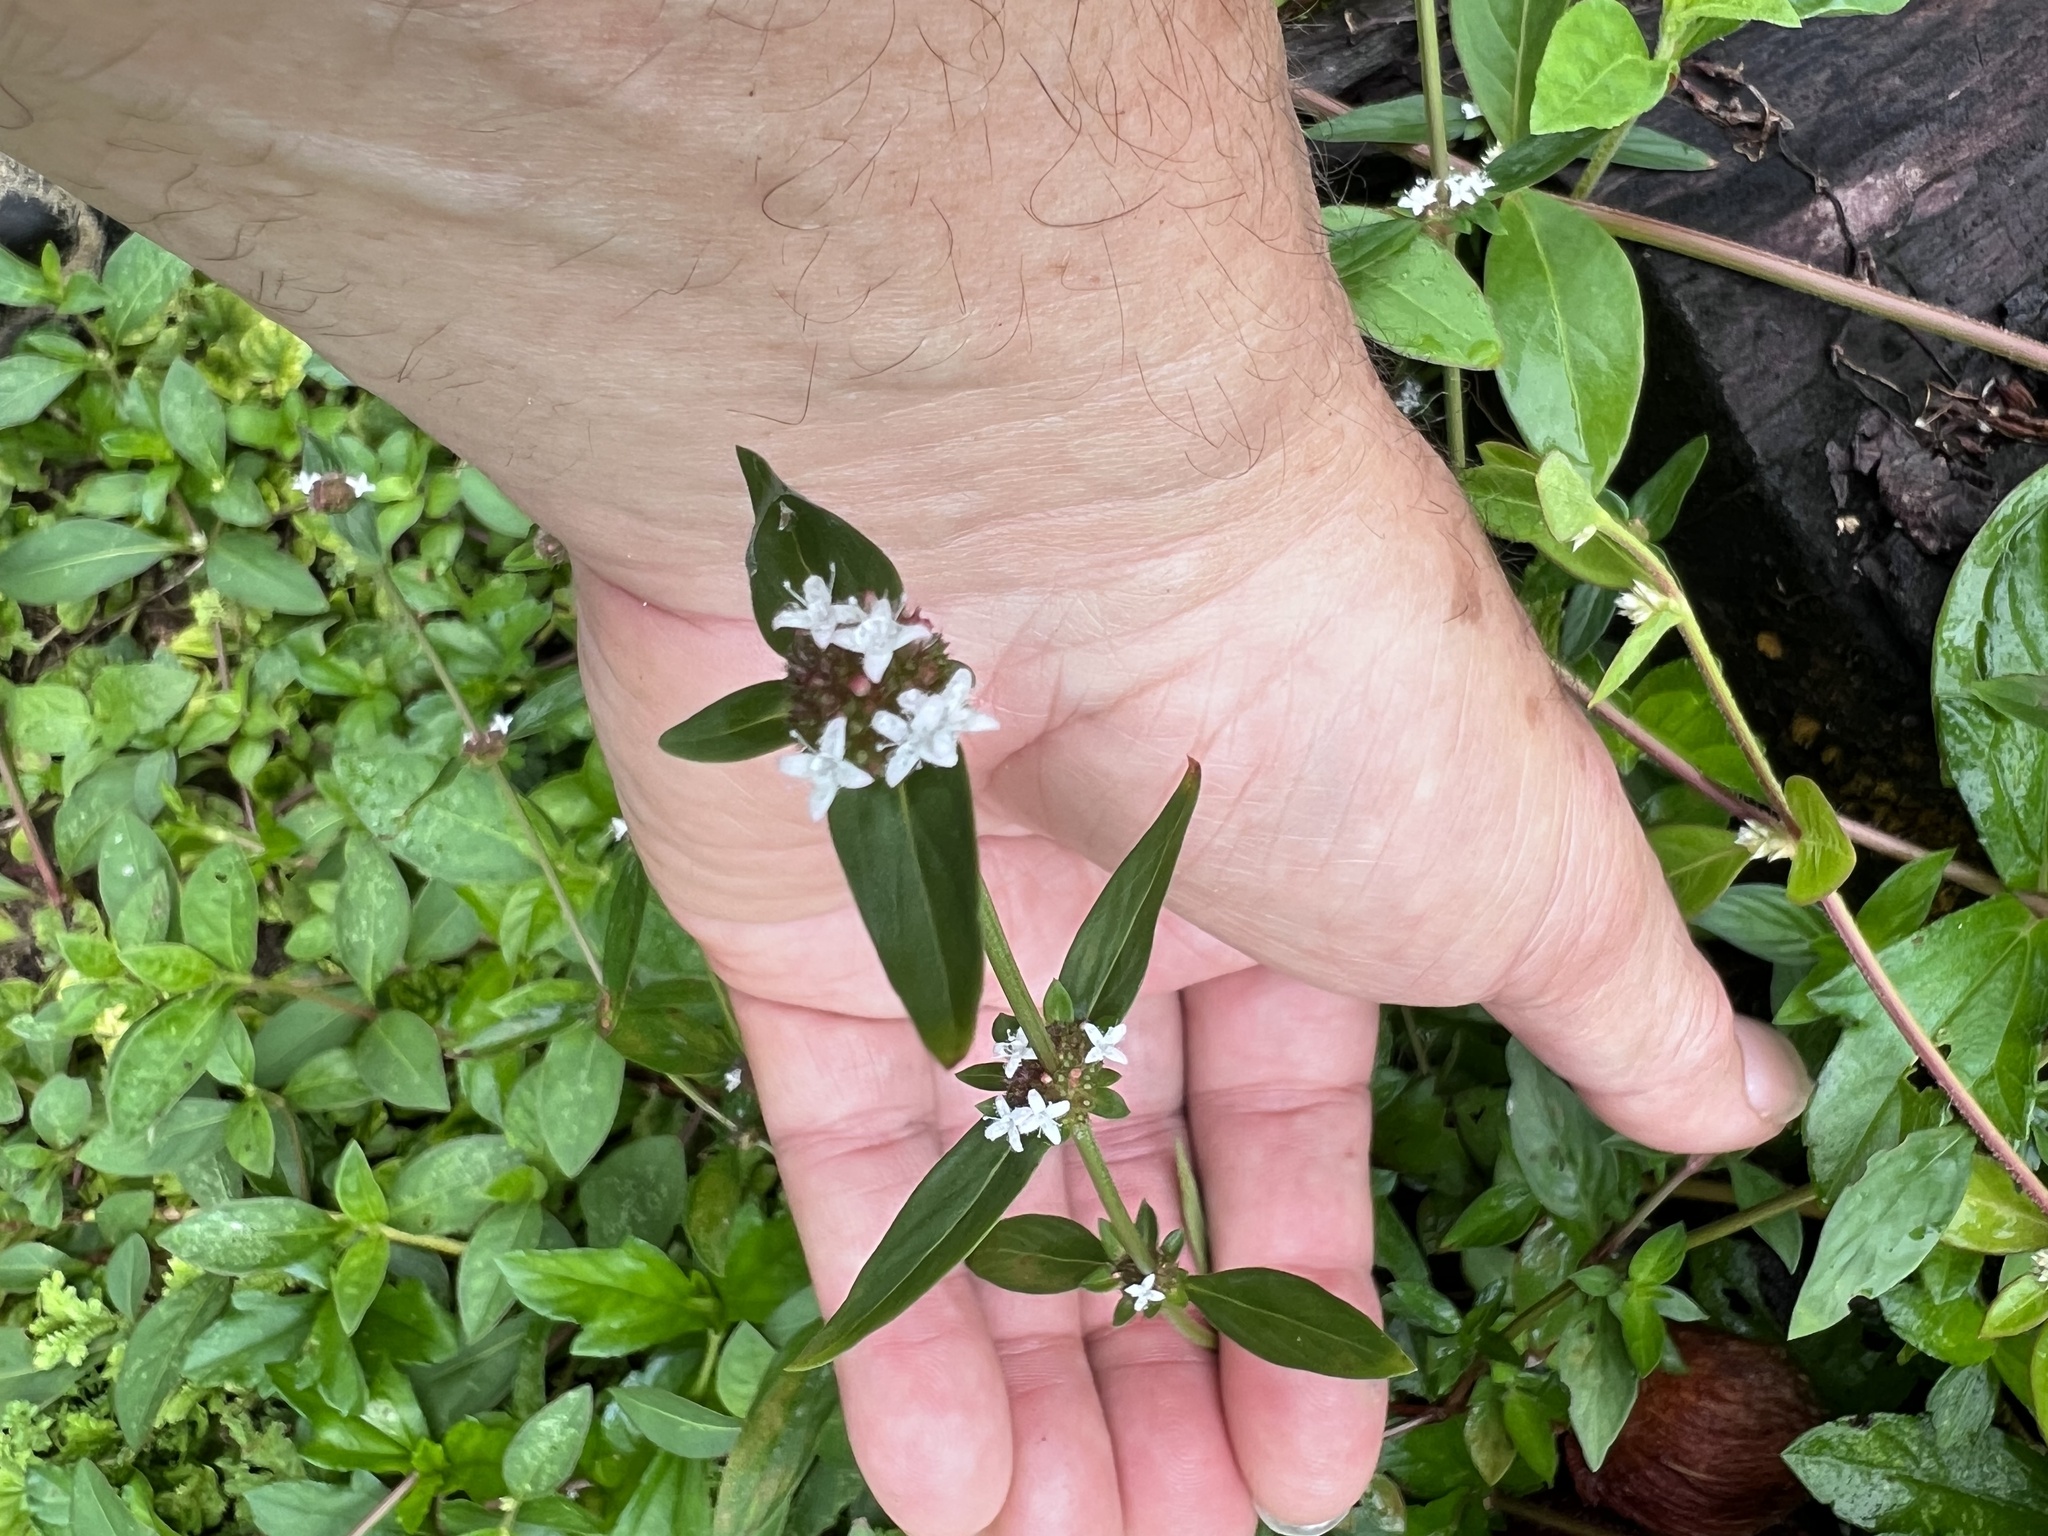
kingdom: Plantae
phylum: Tracheophyta
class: Magnoliopsida
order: Gentianales
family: Rubiaceae
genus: Spermacoce
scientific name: Spermacoce remota
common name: Woodland false buttonweed
